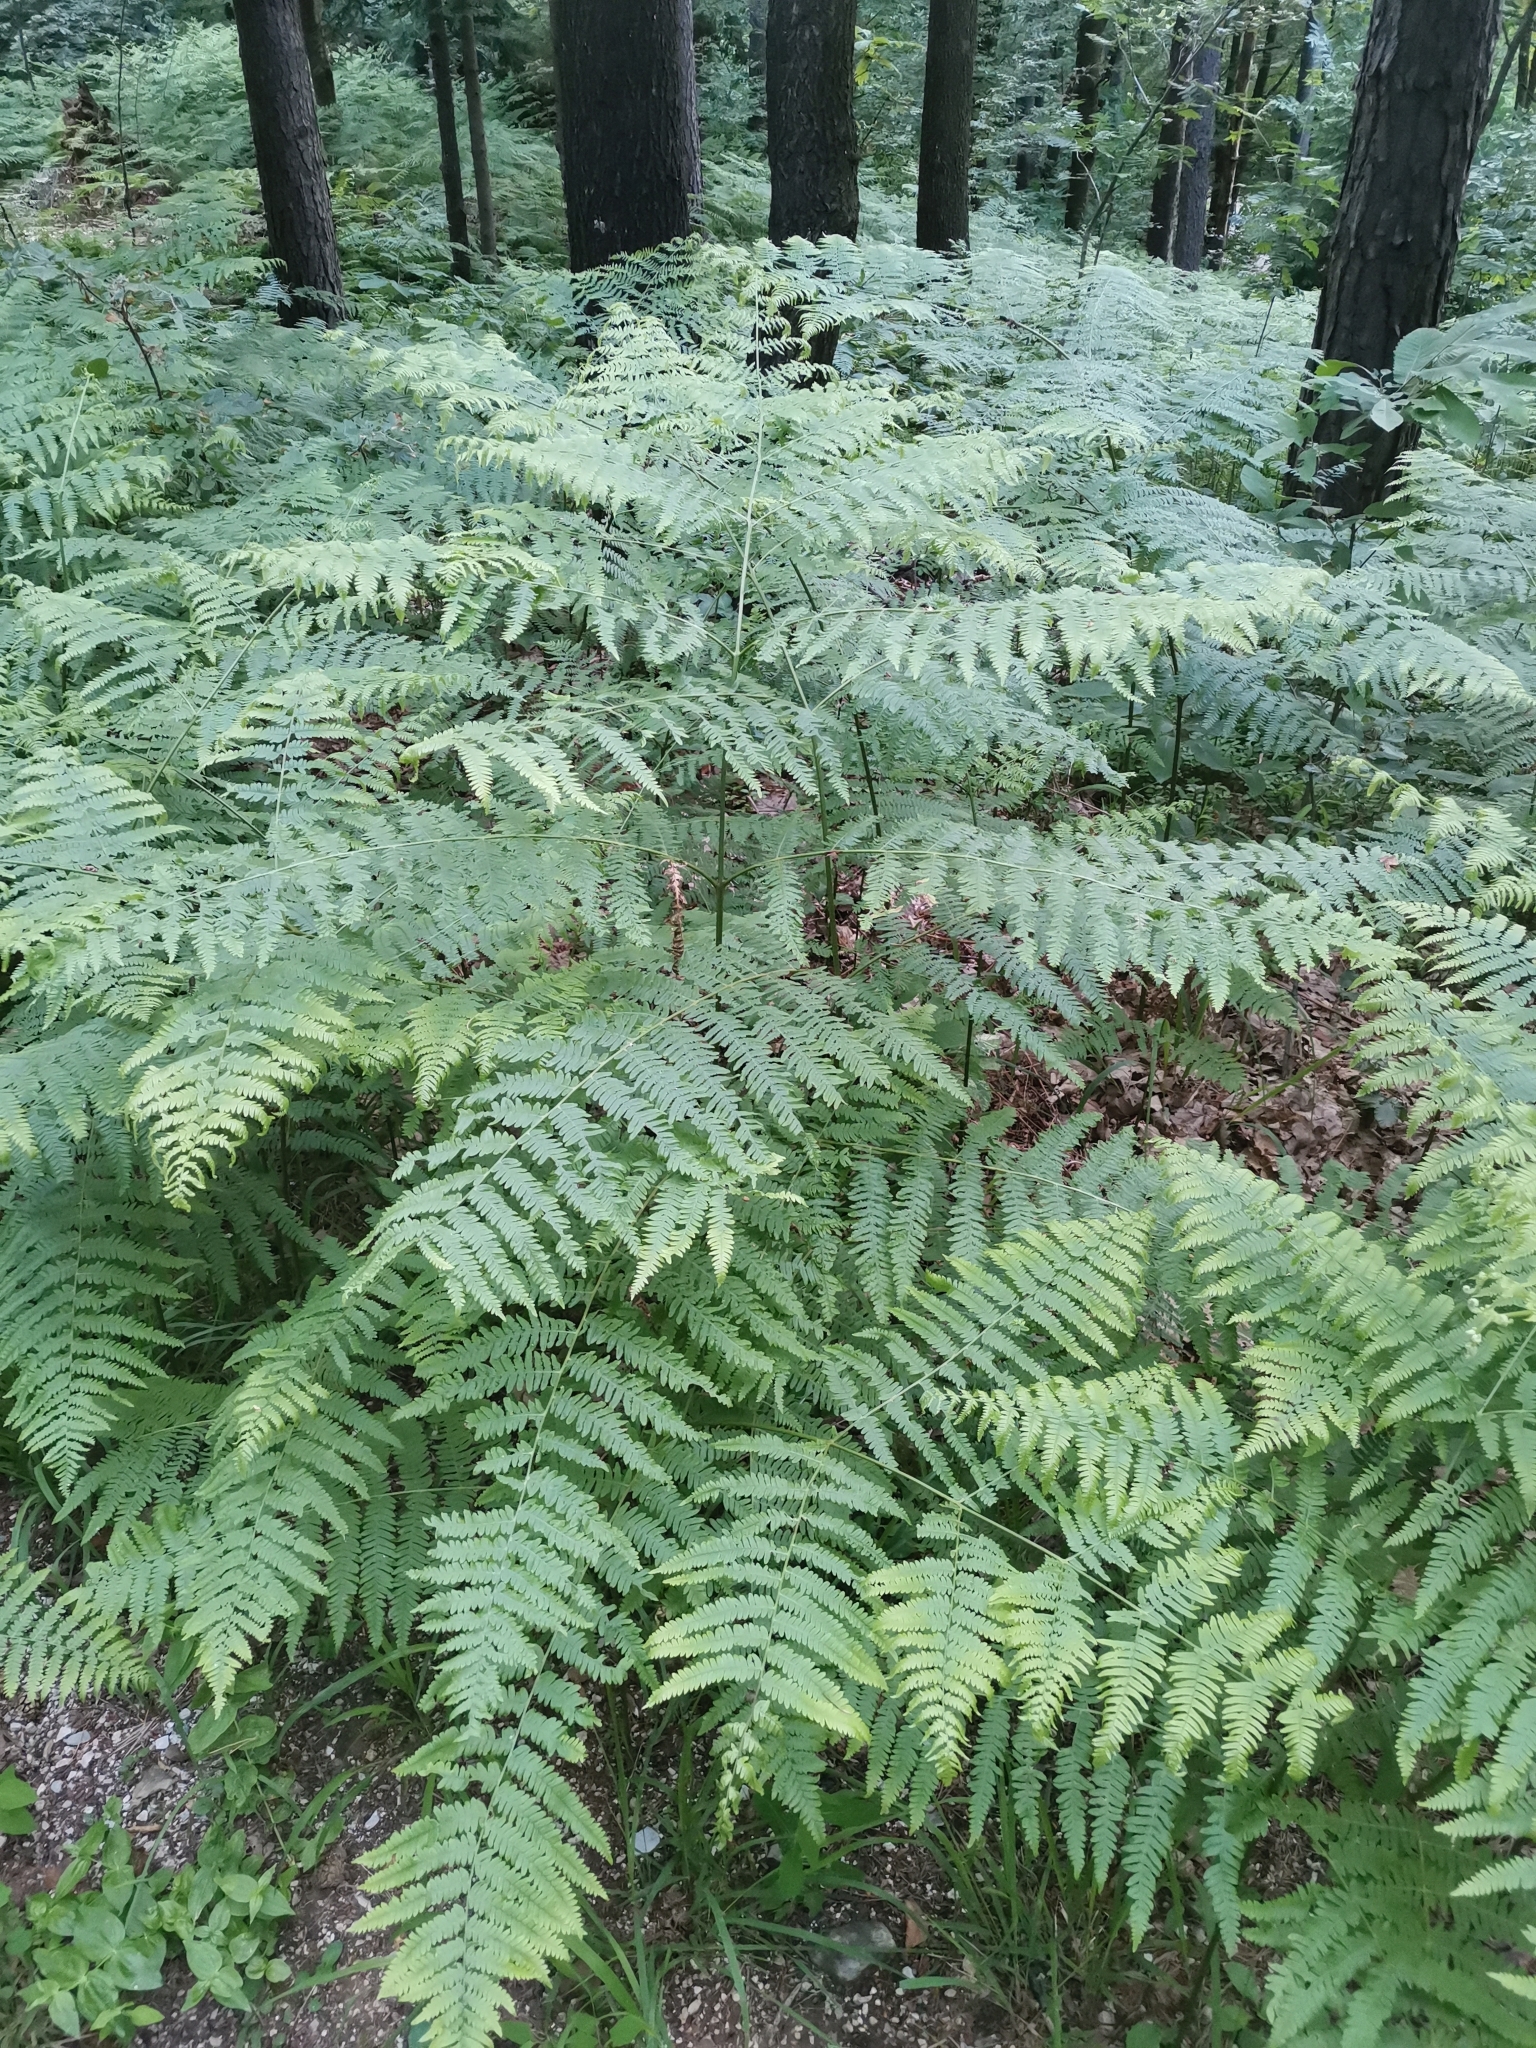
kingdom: Plantae
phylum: Tracheophyta
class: Polypodiopsida
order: Polypodiales
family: Dennstaedtiaceae
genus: Pteridium
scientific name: Pteridium aquilinum
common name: Bracken
